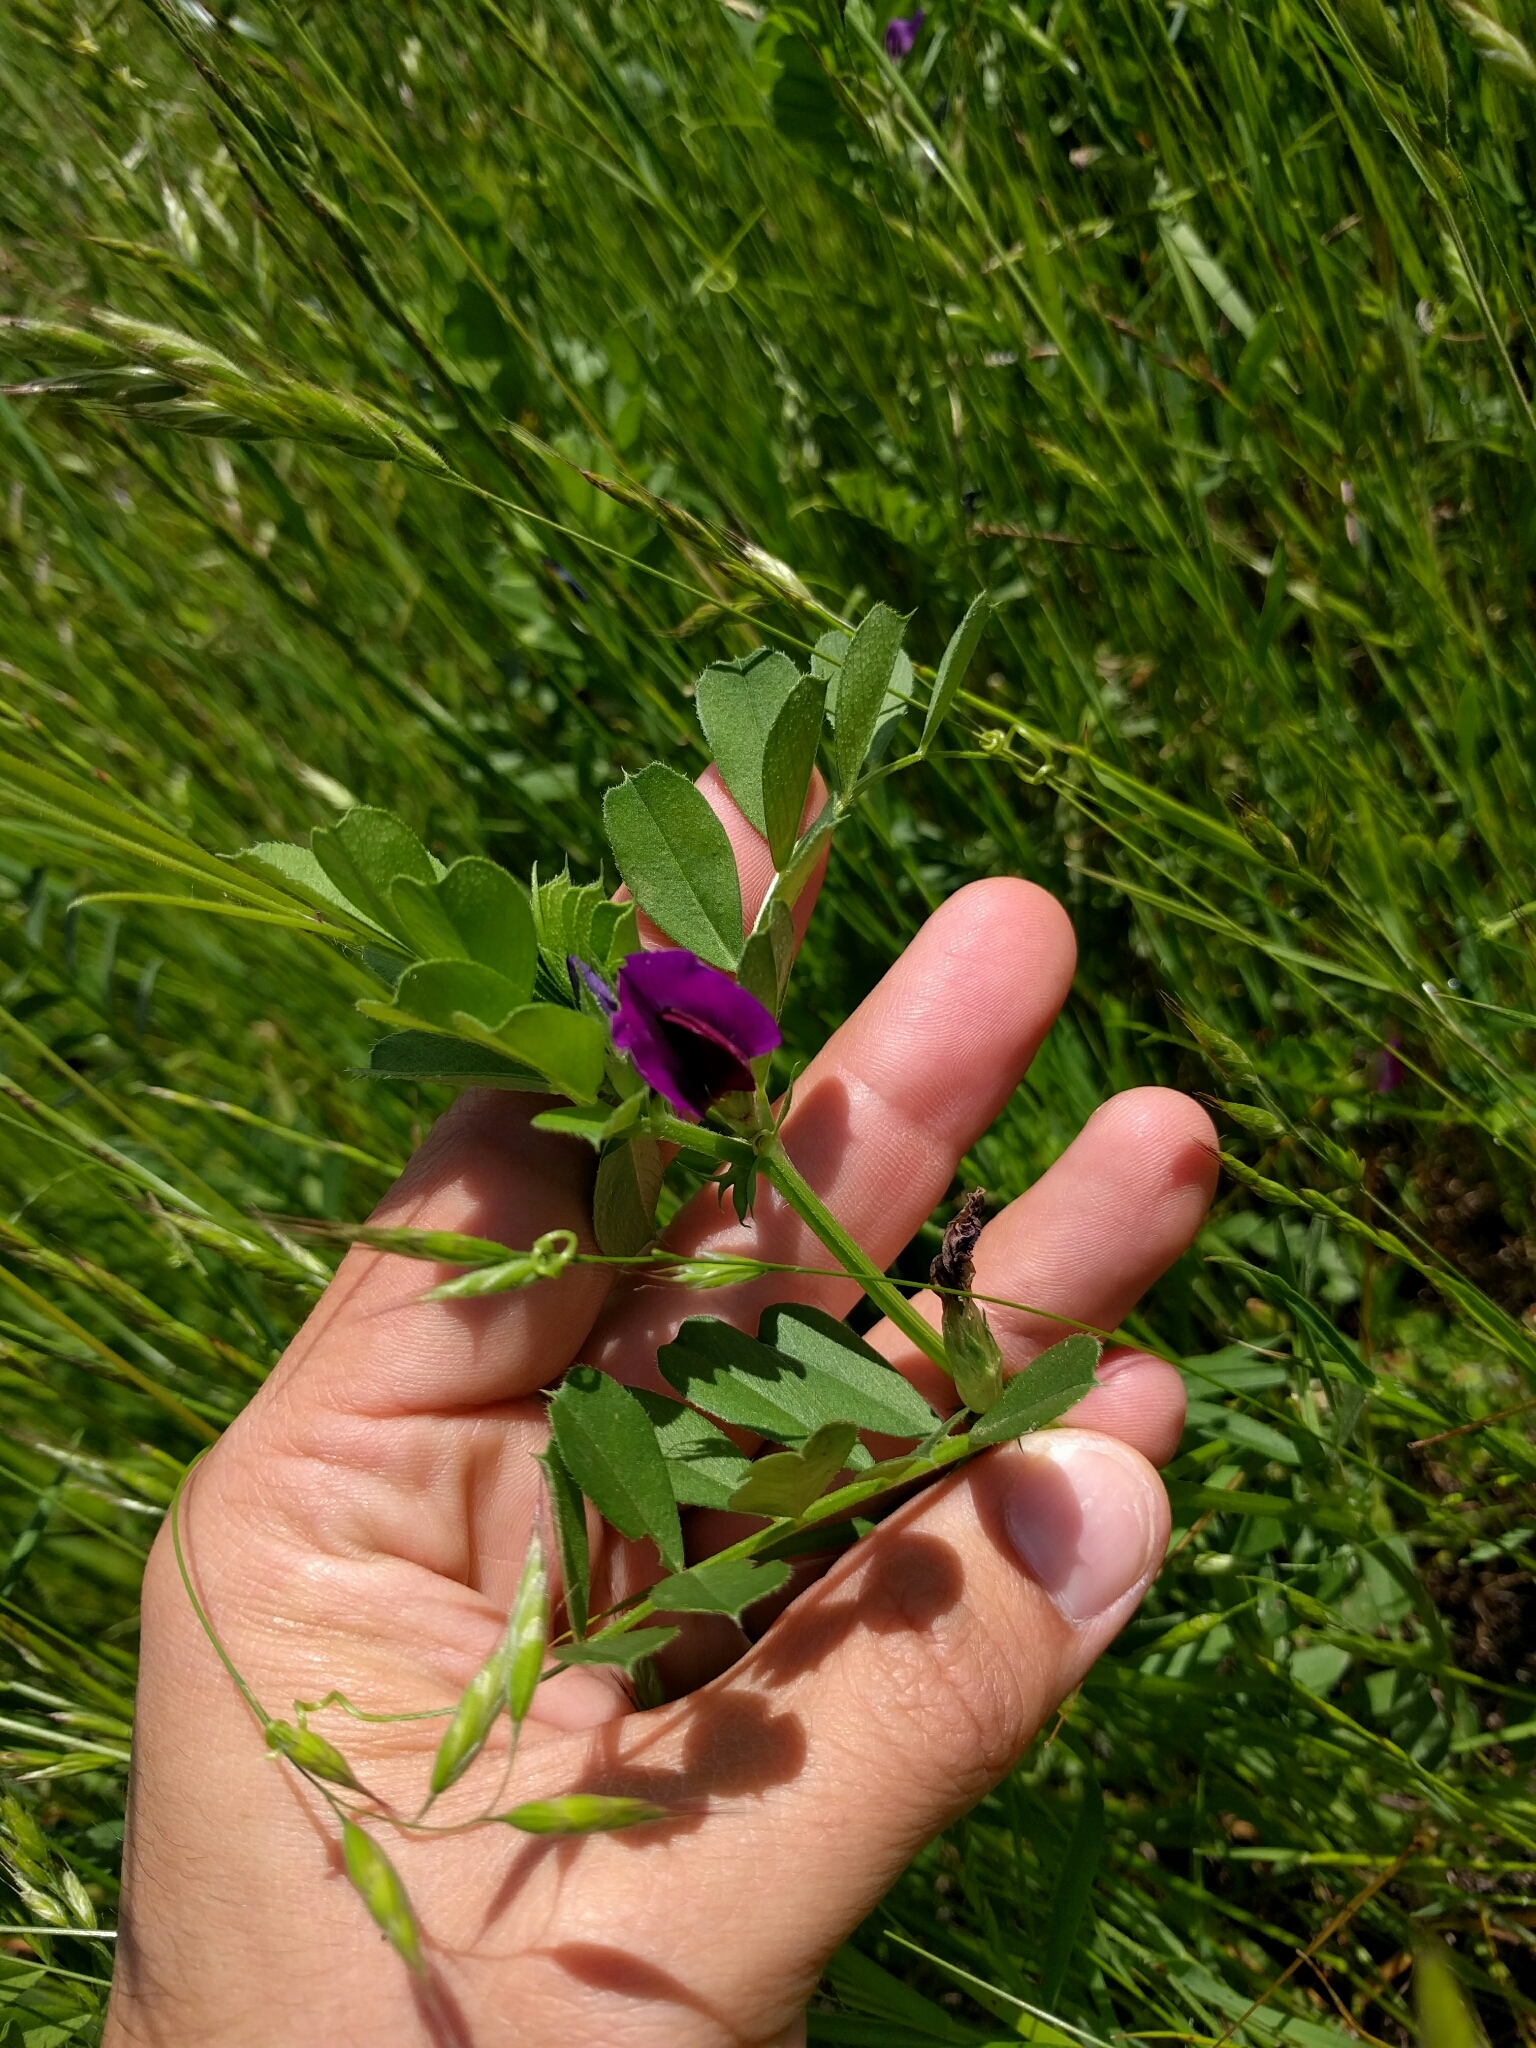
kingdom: Plantae
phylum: Tracheophyta
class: Magnoliopsida
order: Fabales
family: Fabaceae
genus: Vicia
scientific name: Vicia sativa
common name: Garden vetch
